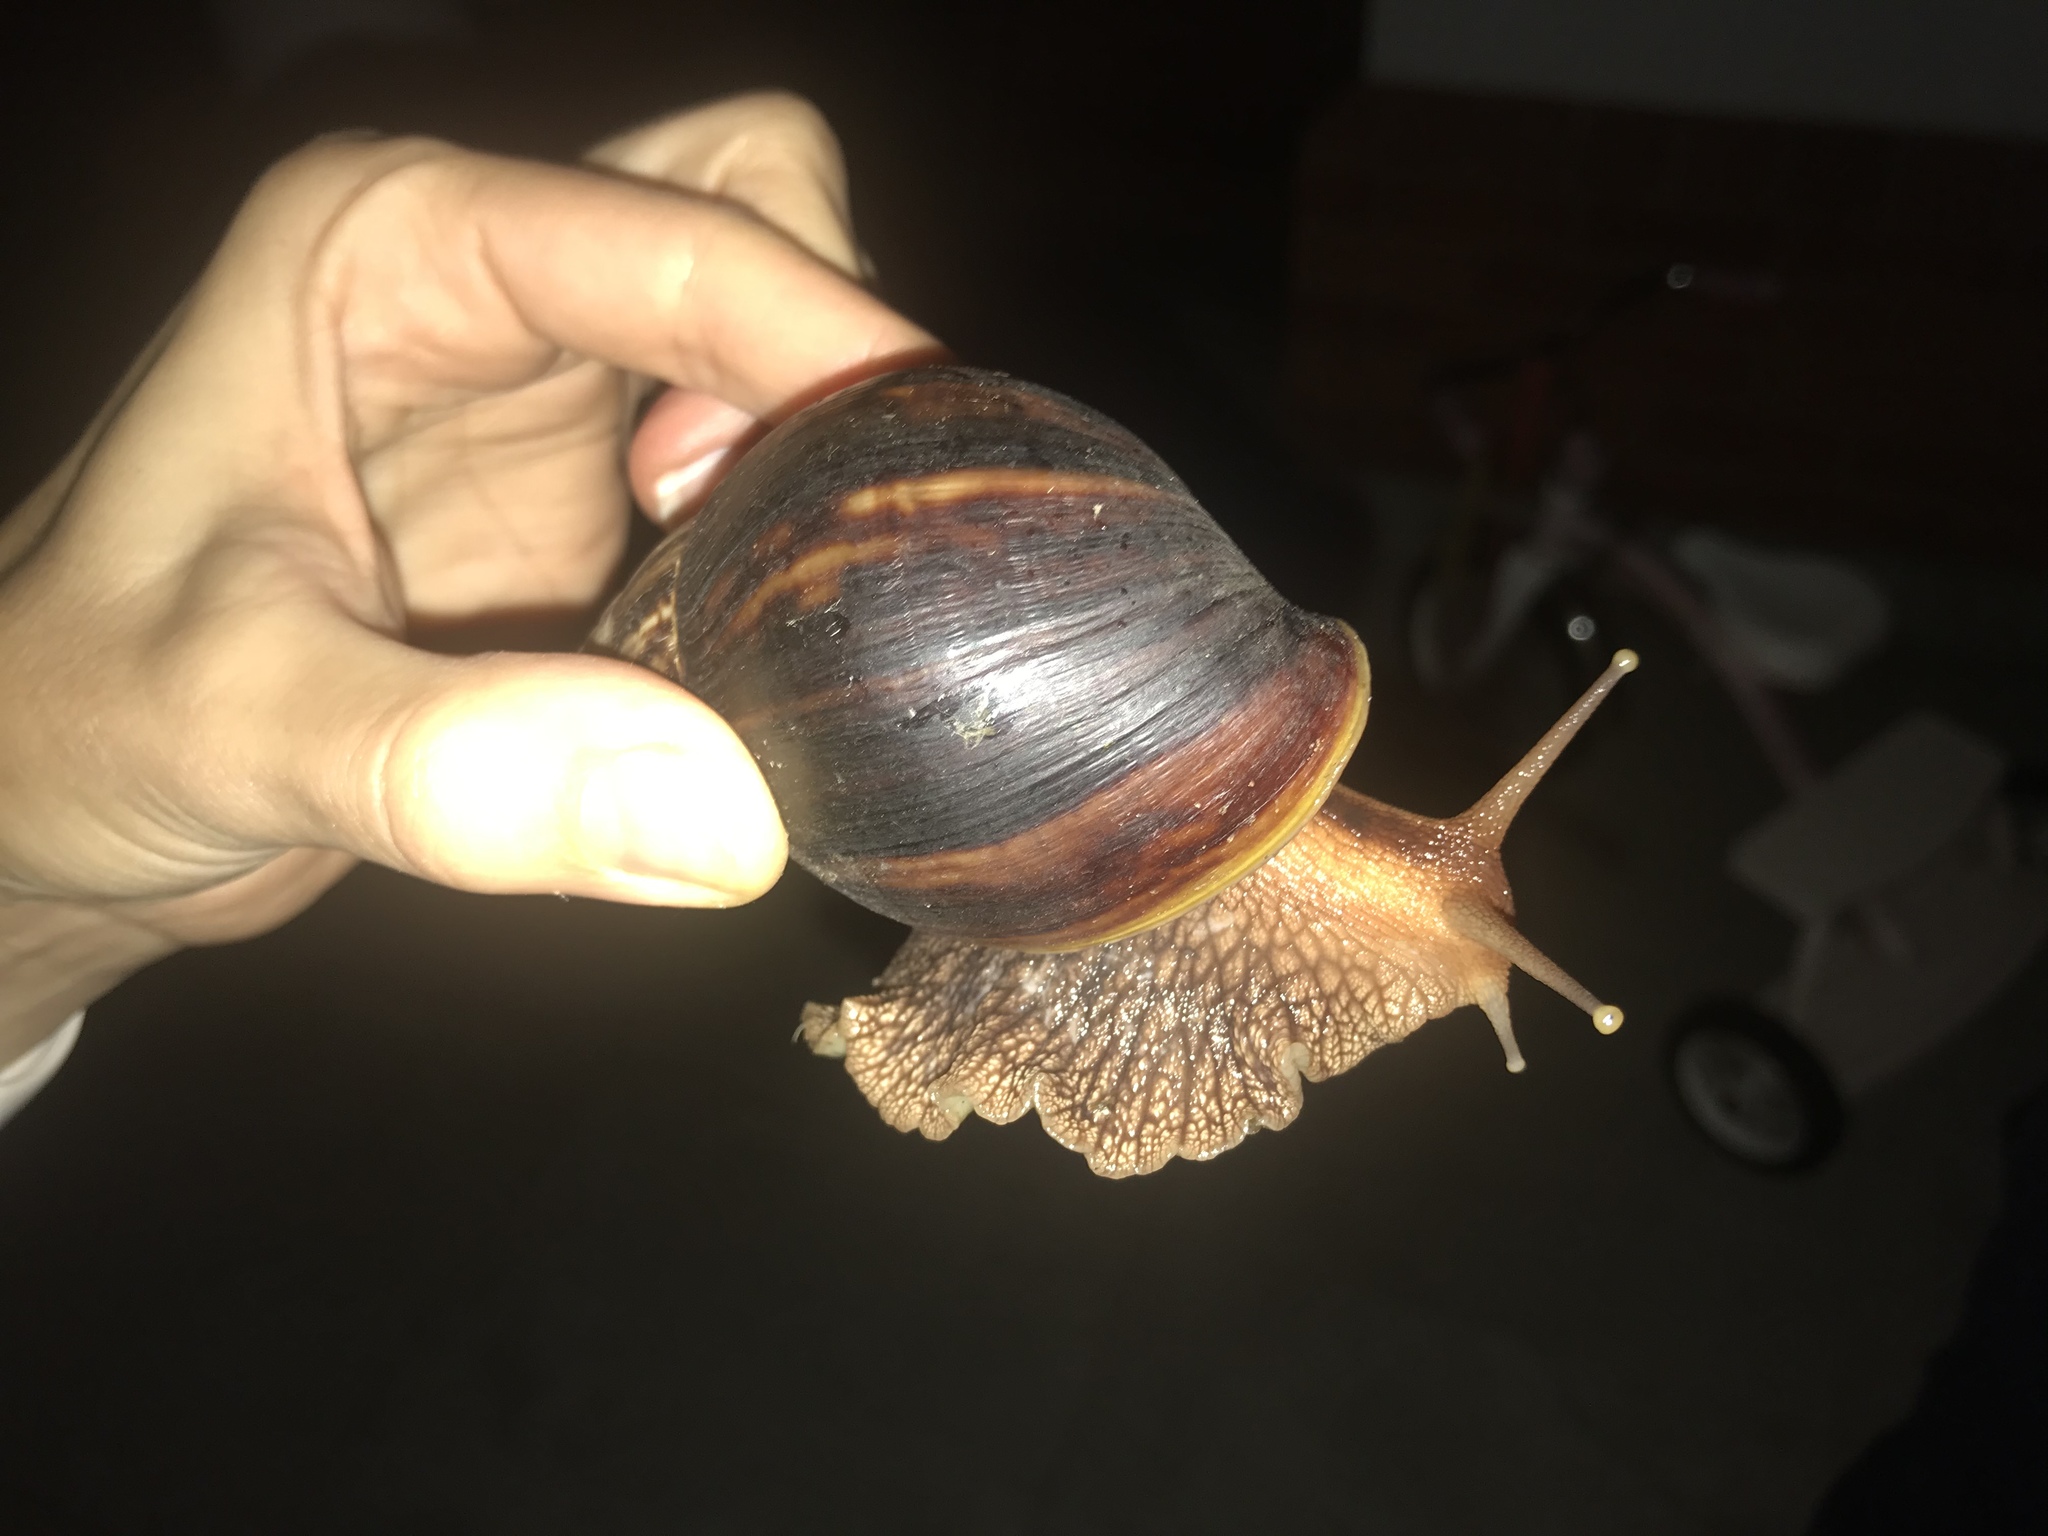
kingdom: Animalia
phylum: Mollusca
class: Gastropoda
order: Stylommatophora
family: Achatinidae
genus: Lissachatina
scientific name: Lissachatina immaculata
